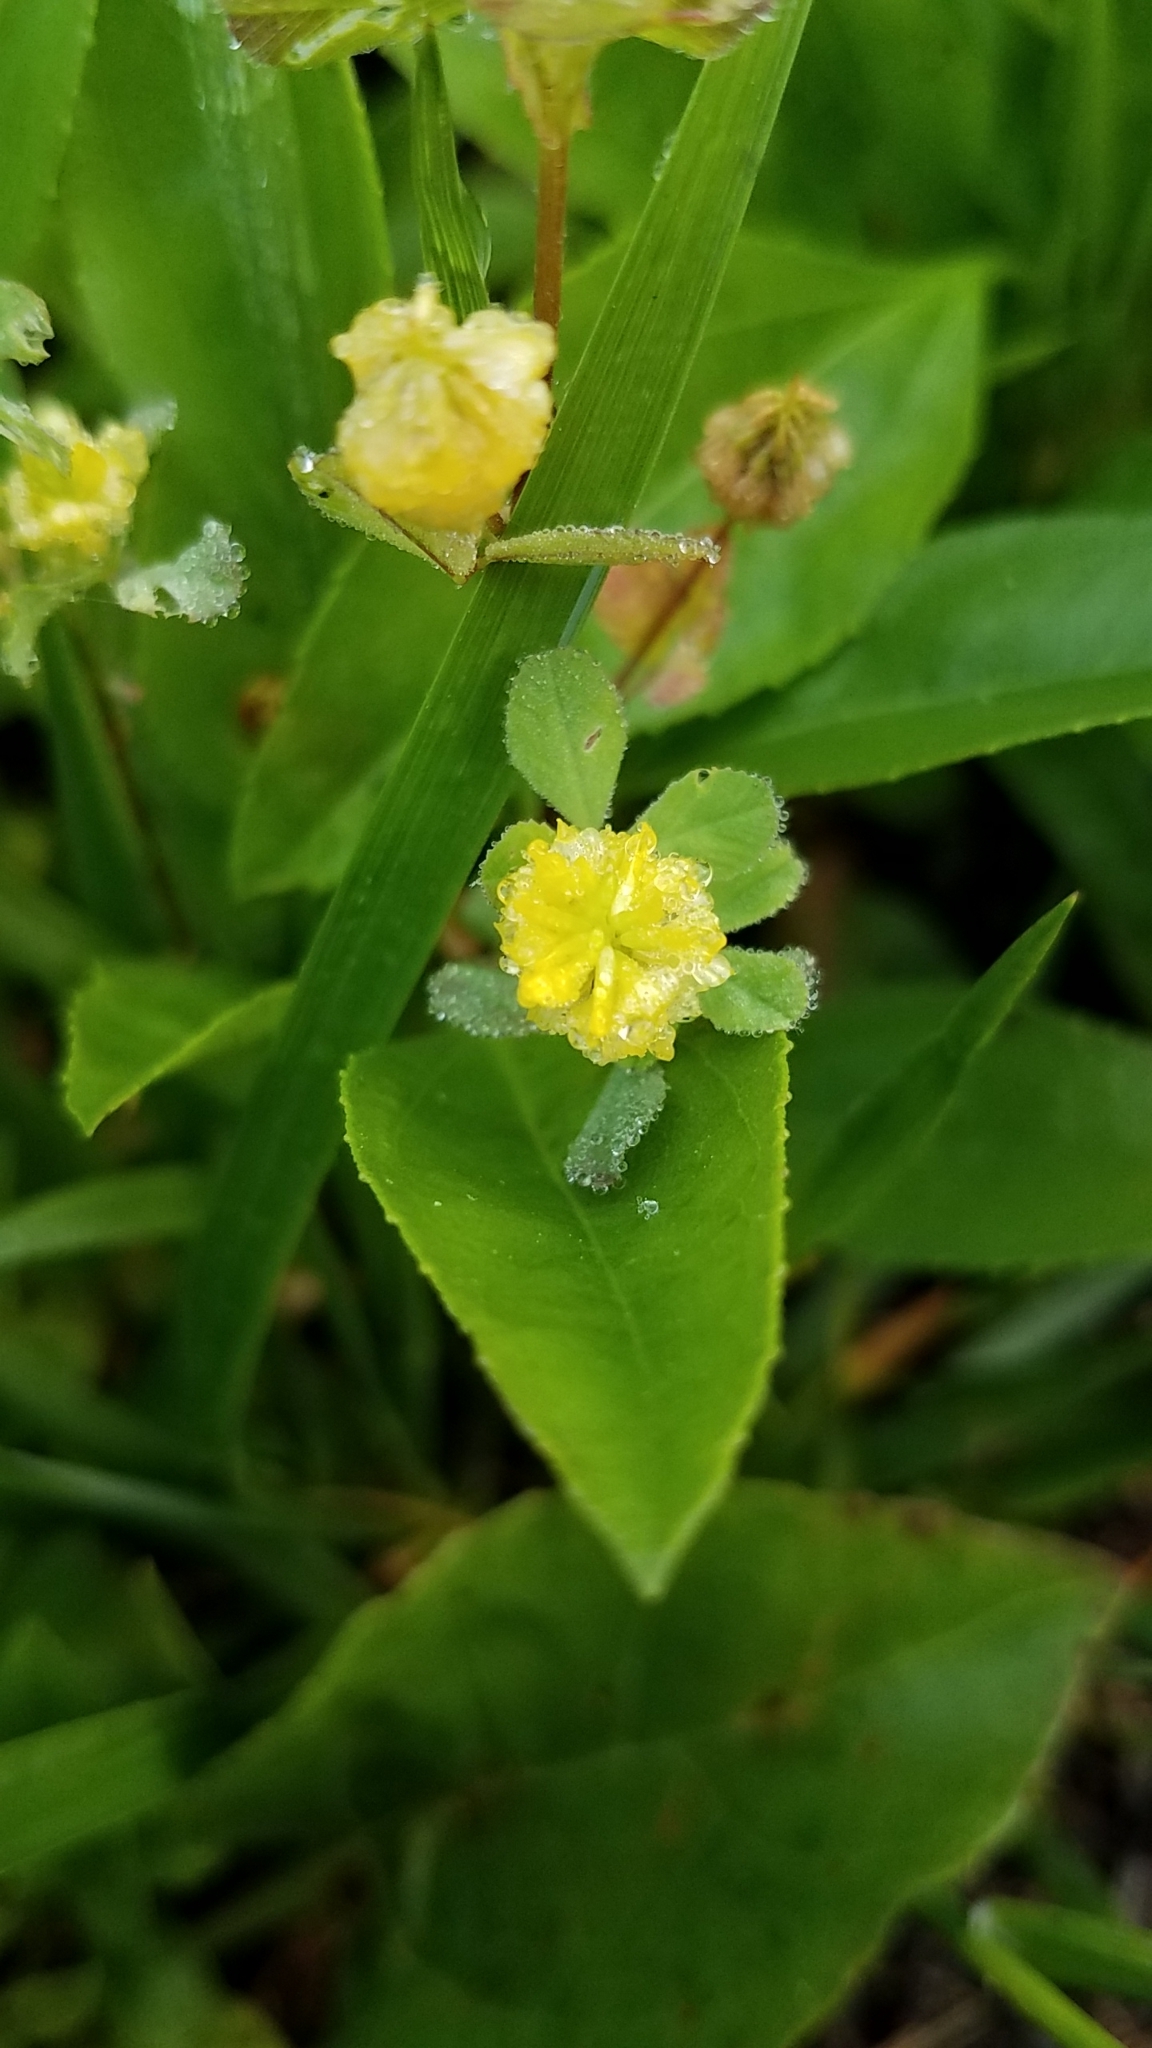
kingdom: Plantae
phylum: Tracheophyta
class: Magnoliopsida
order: Fabales
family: Fabaceae
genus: Trifolium
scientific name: Trifolium campestre
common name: Field clover
